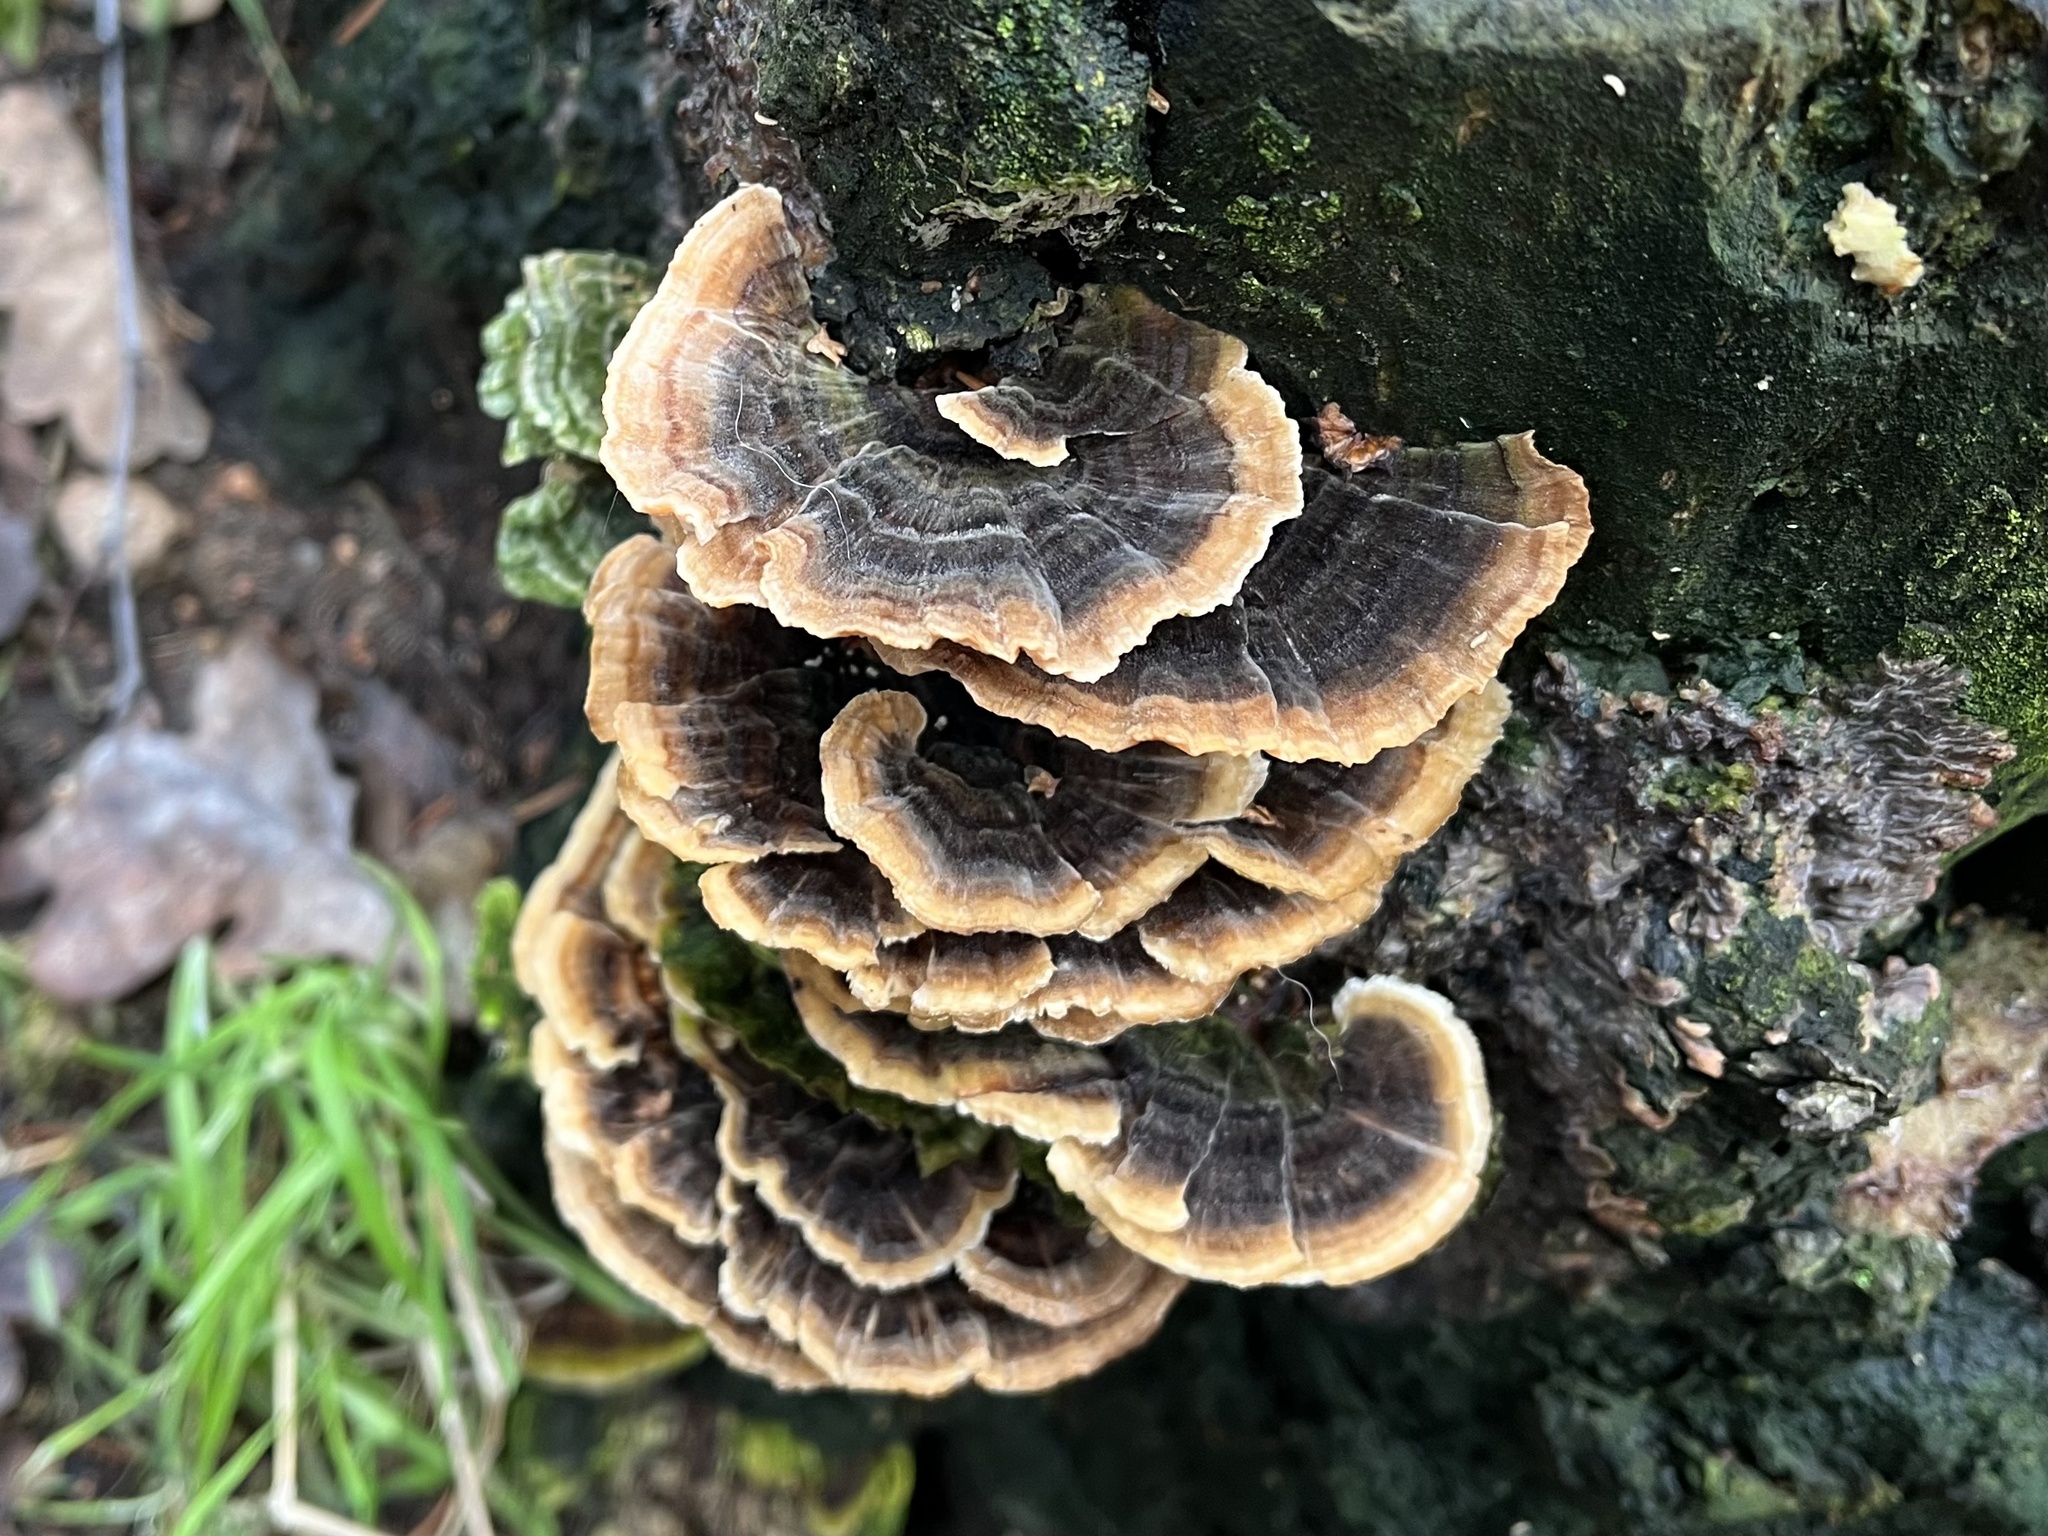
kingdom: Fungi
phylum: Basidiomycota
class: Agaricomycetes
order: Polyporales
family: Polyporaceae
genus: Trametes
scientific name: Trametes versicolor
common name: Turkeytail
